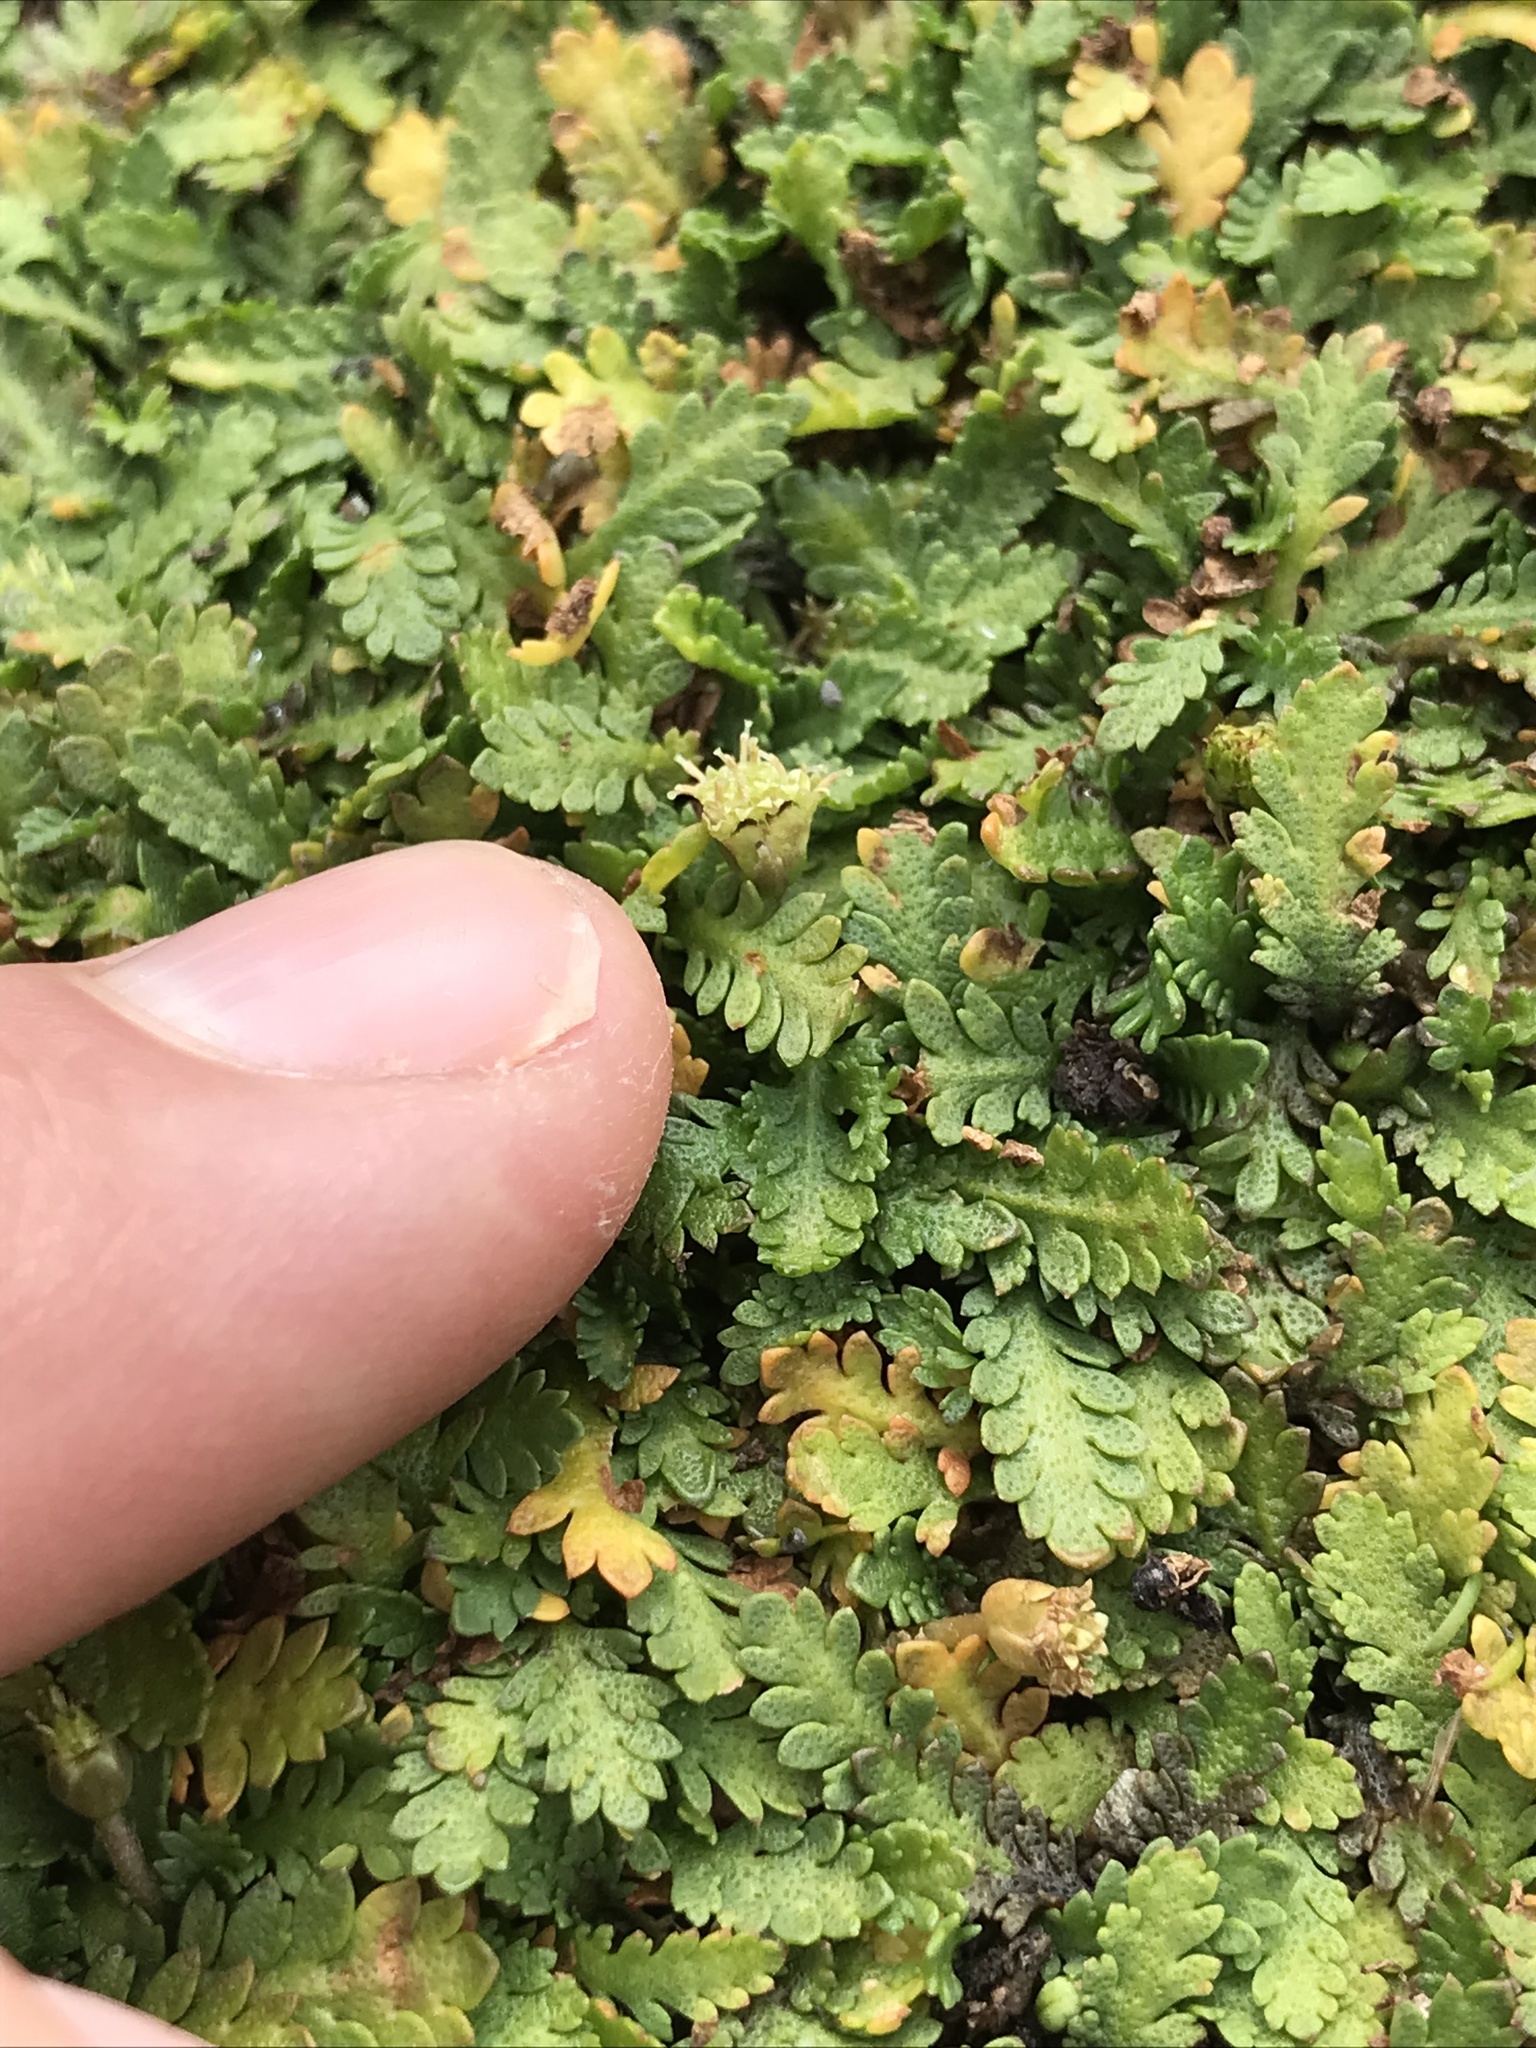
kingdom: Plantae
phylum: Tracheophyta
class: Magnoliopsida
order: Asterales
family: Asteraceae
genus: Leptinella
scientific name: Leptinella dioica
